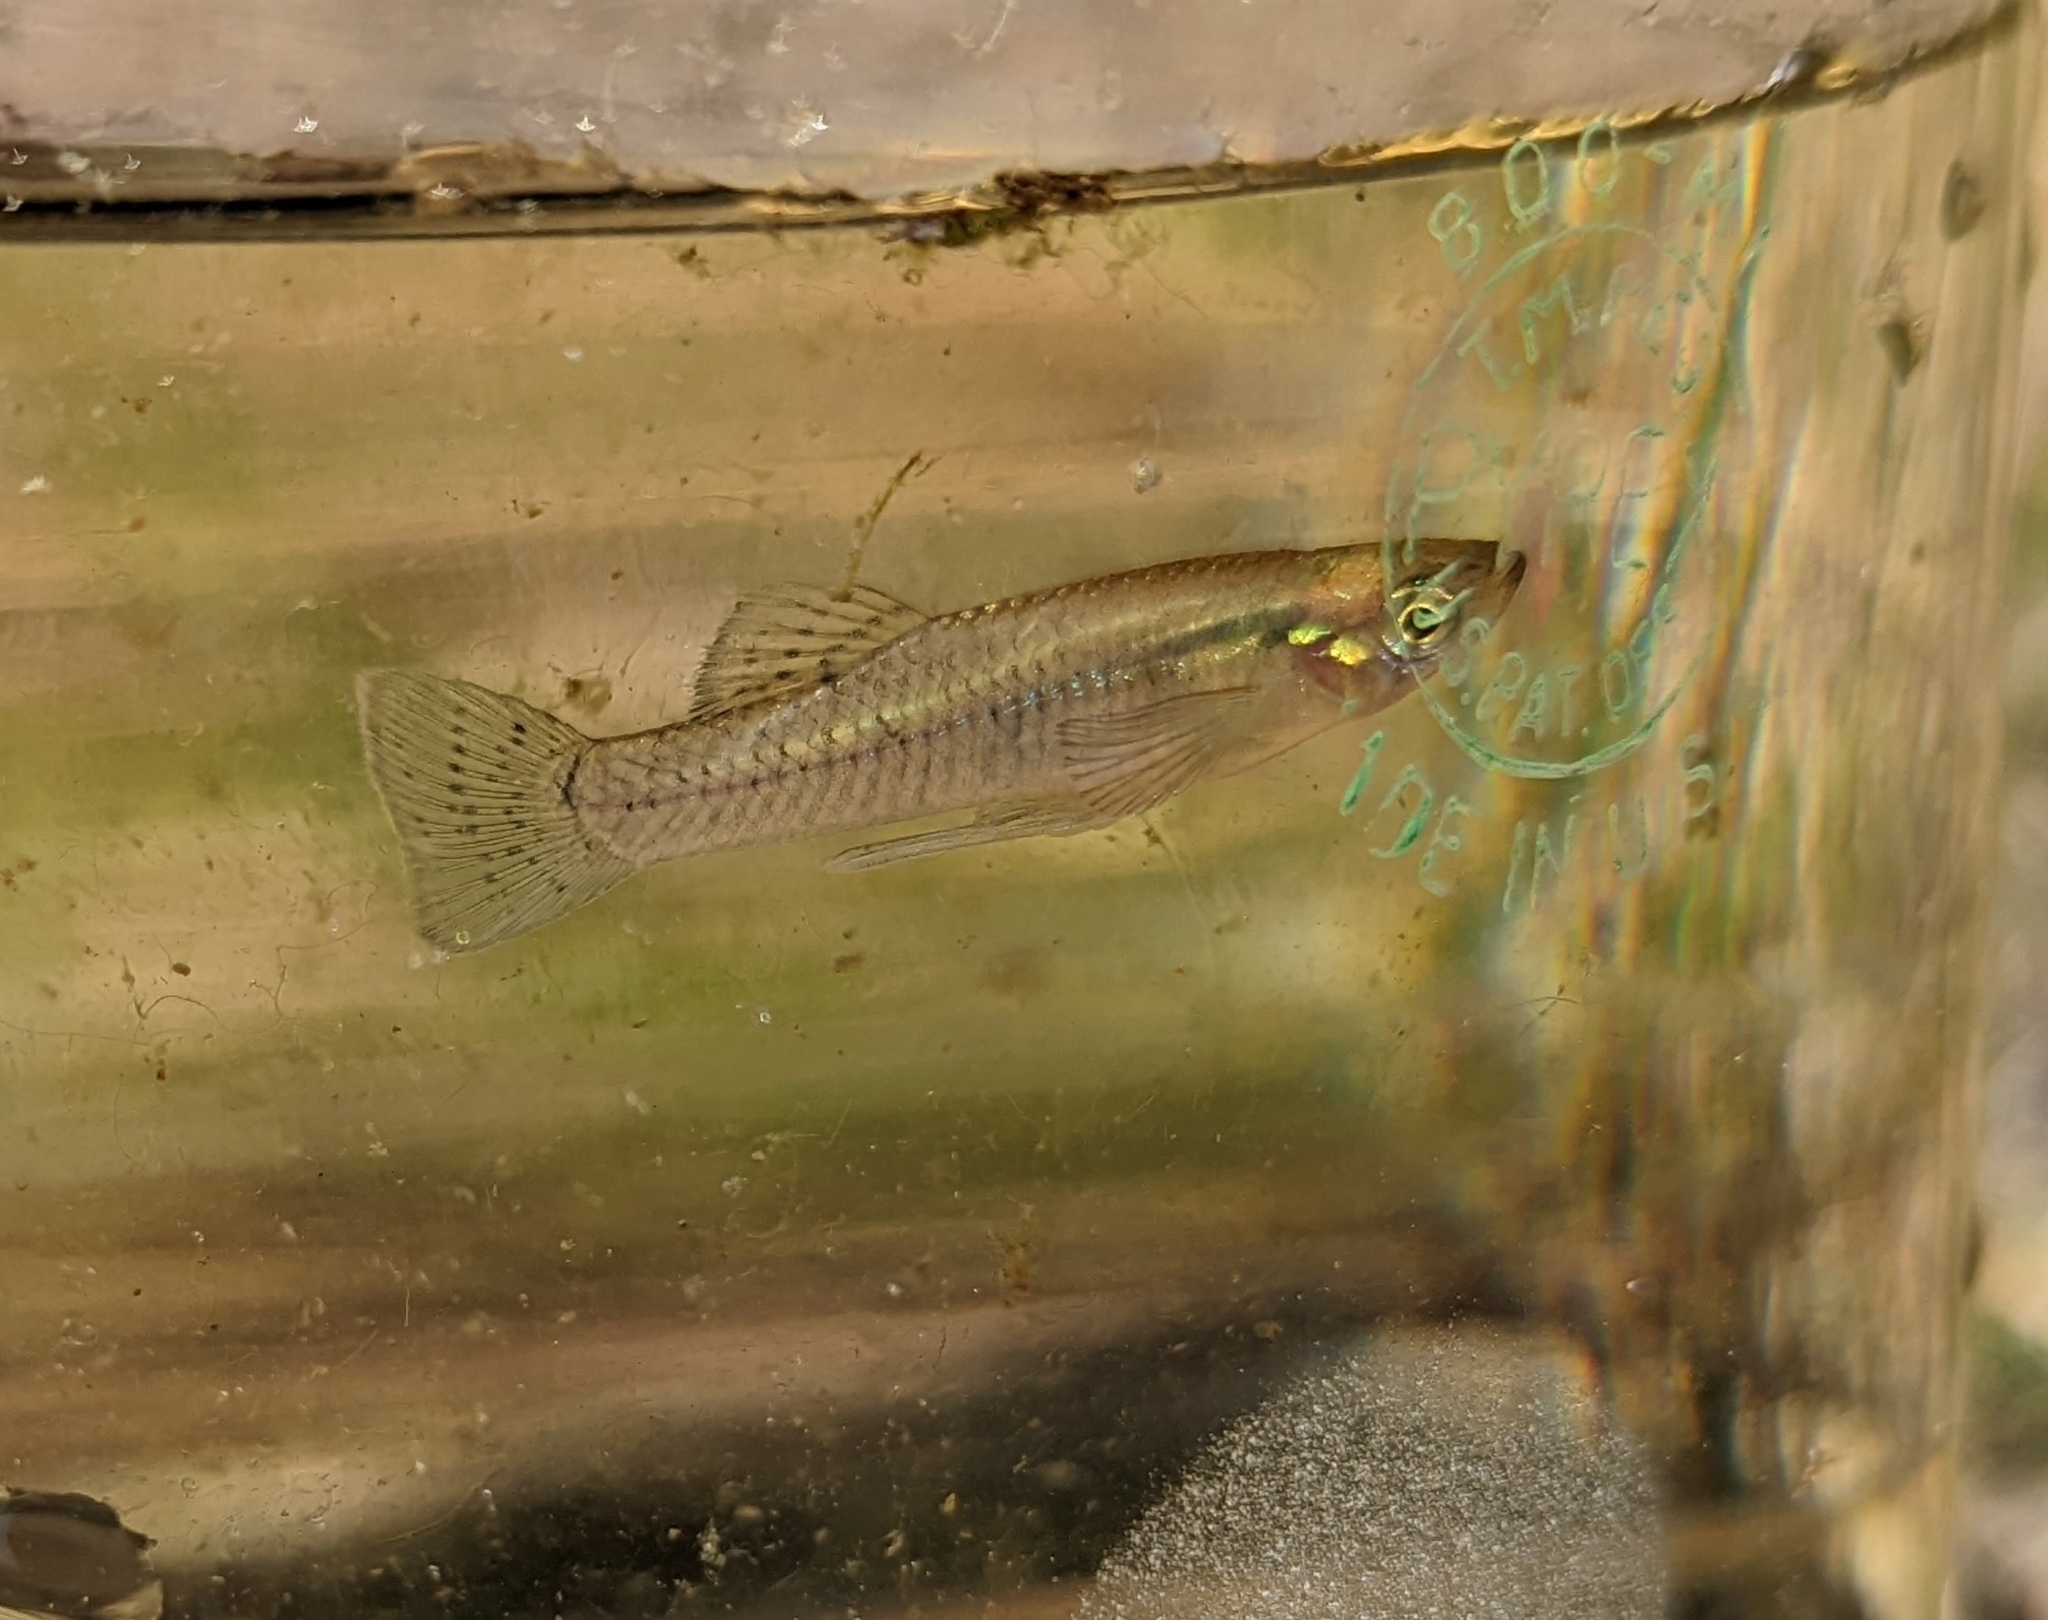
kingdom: Animalia
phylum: Chordata
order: Cyprinodontiformes
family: Poeciliidae
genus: Gambusia
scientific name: Gambusia holbrooki
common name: Eastern mosquitofish
